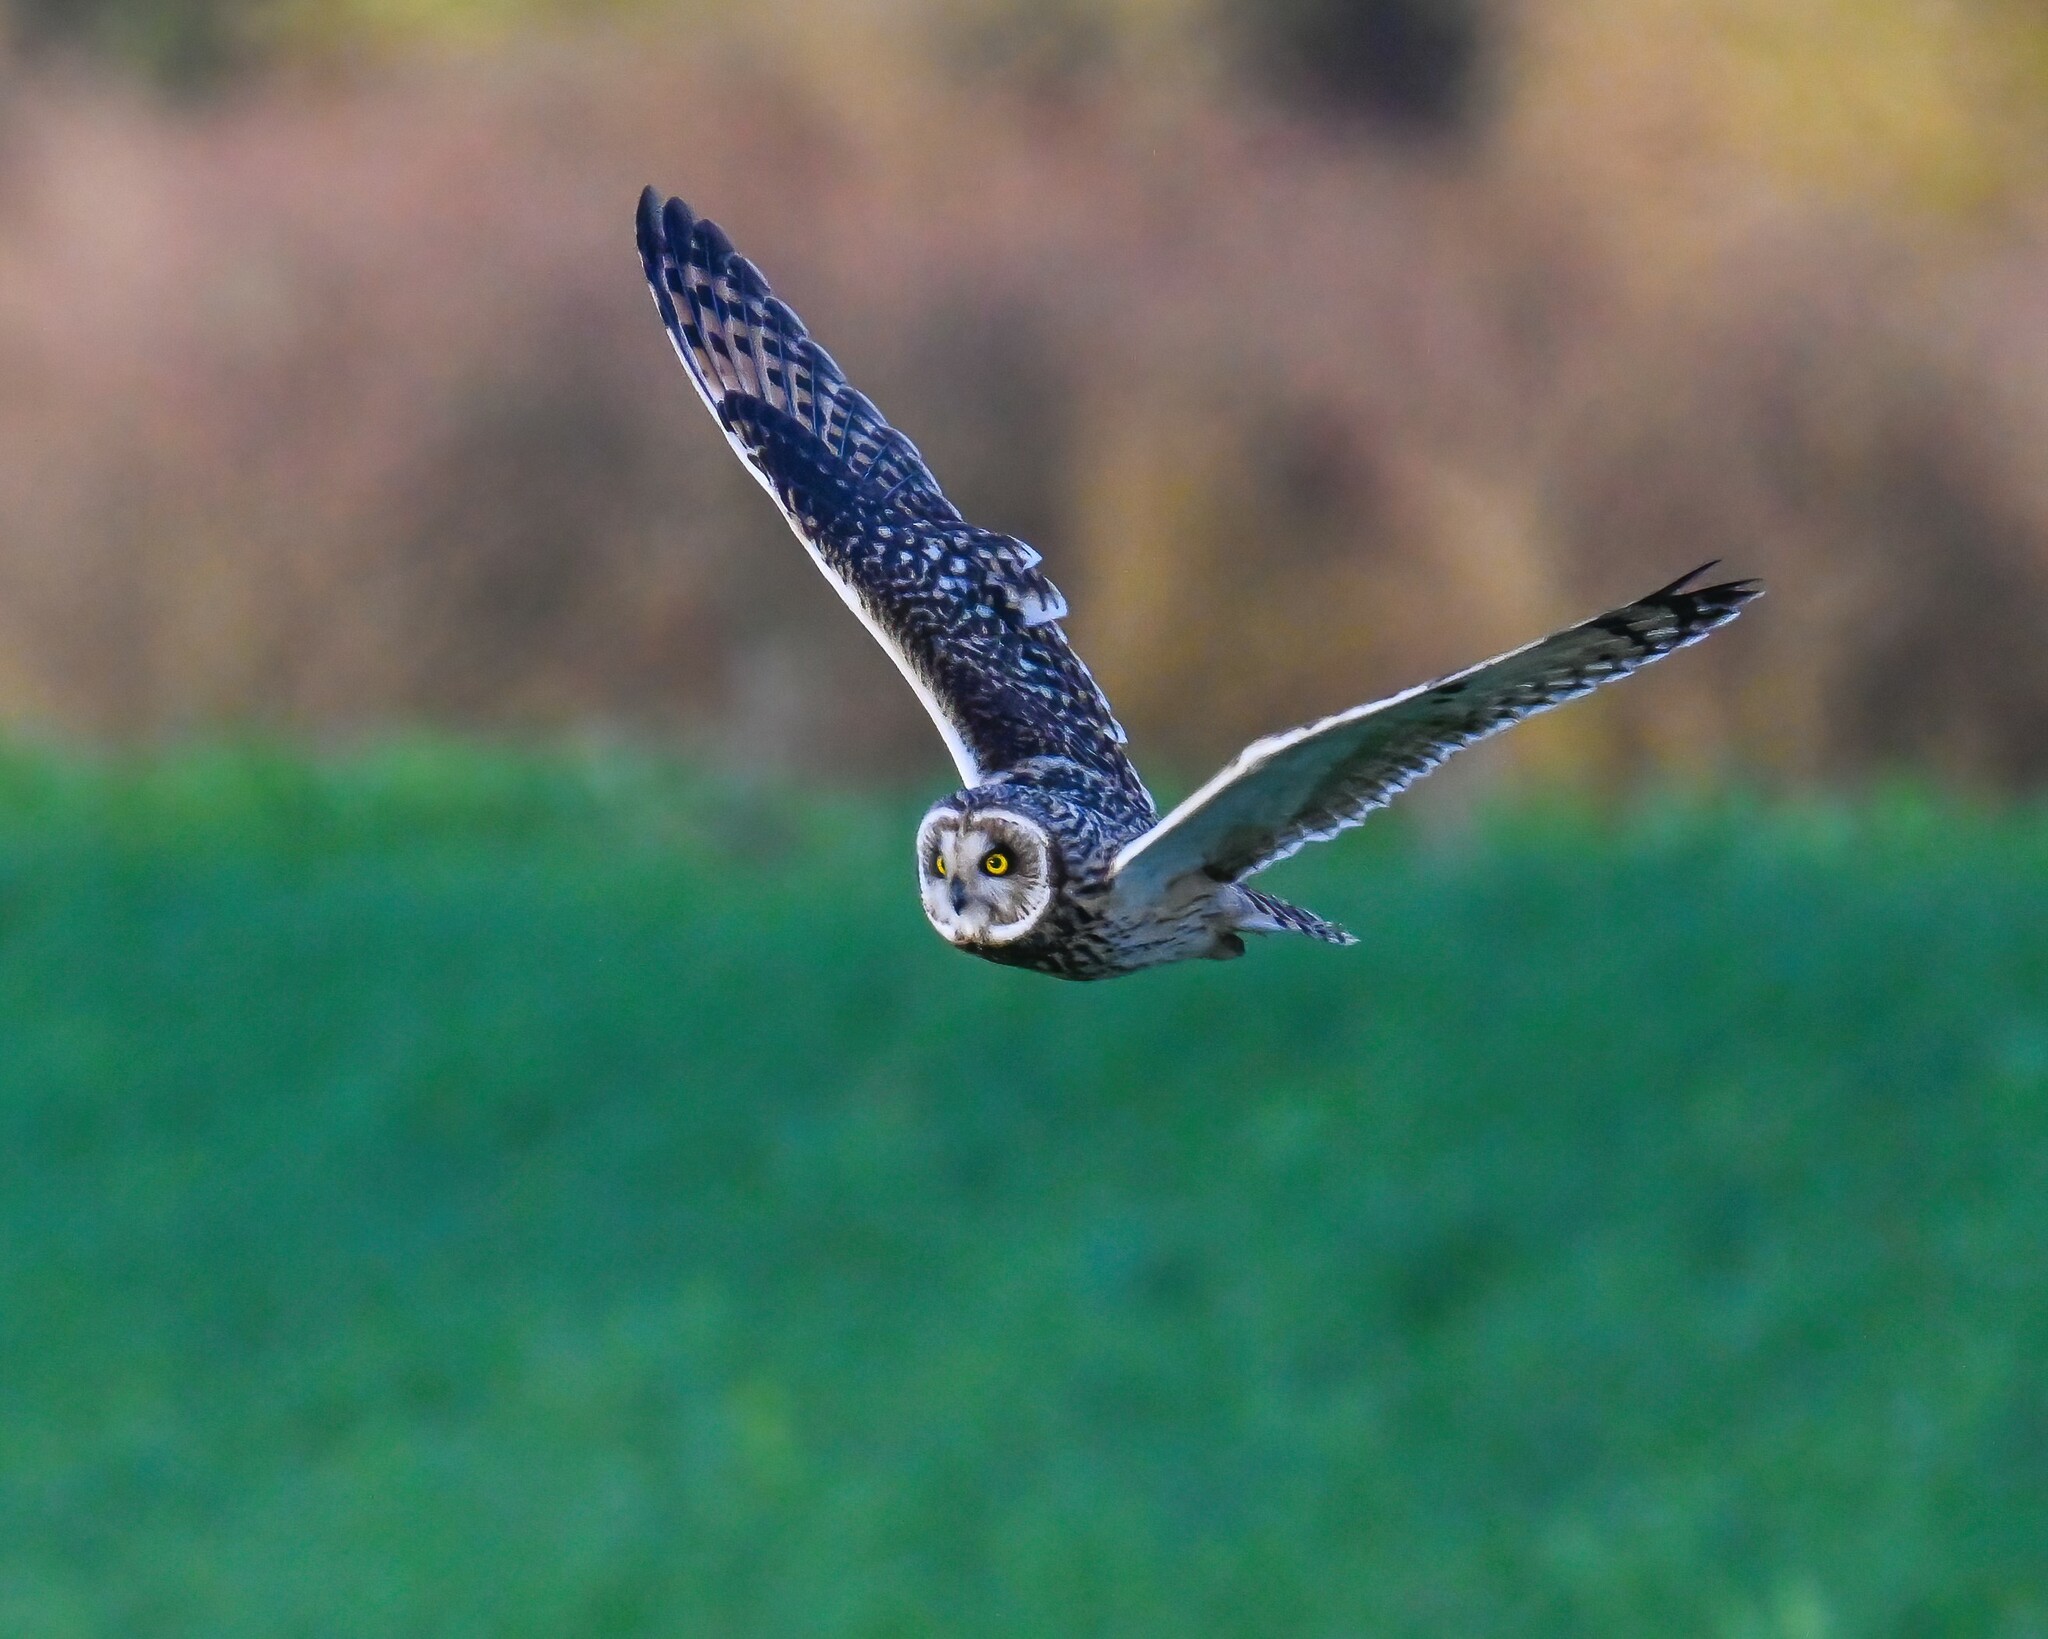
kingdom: Animalia
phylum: Chordata
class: Aves
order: Strigiformes
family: Strigidae
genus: Asio
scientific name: Asio flammeus
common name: Short-eared owl
